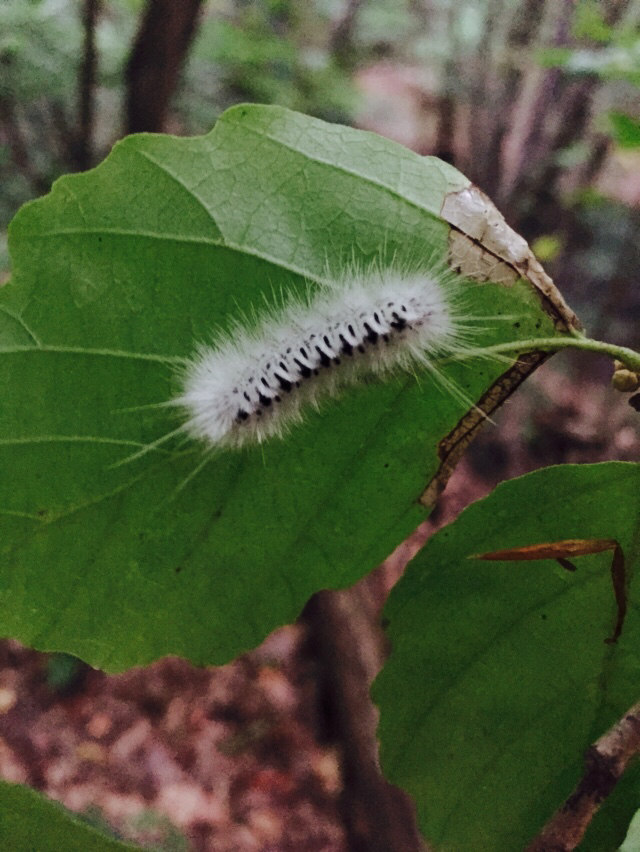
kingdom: Animalia
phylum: Arthropoda
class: Insecta
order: Lepidoptera
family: Erebidae
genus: Lophocampa
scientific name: Lophocampa caryae
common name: Hickory tussock moth
